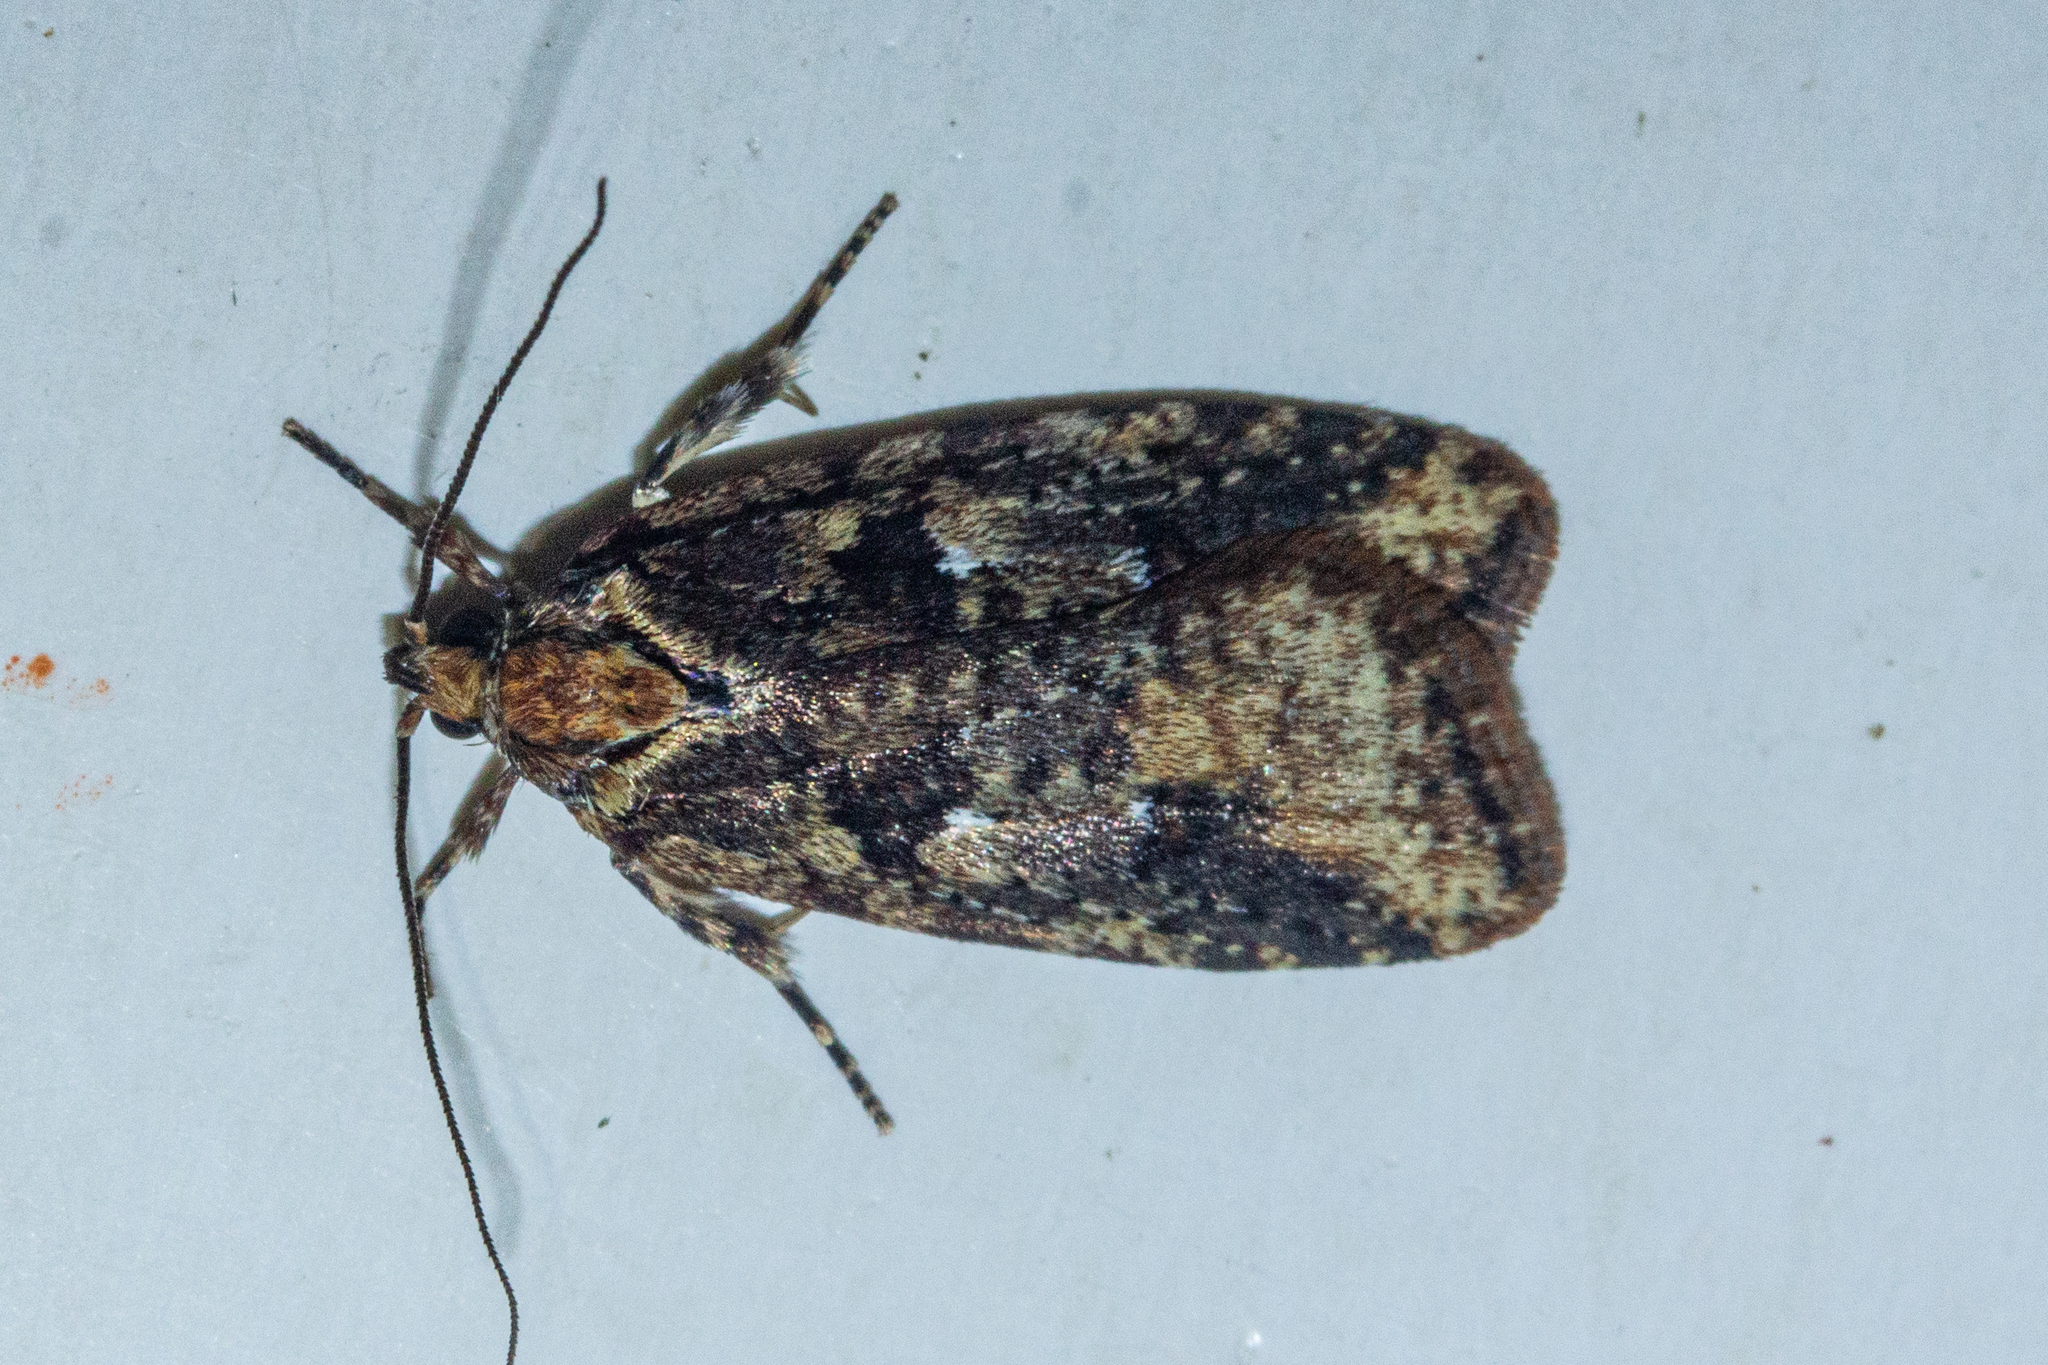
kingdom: Animalia
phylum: Arthropoda
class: Insecta
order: Lepidoptera
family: Oecophoridae
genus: Proteodes
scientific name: Proteodes profunda
